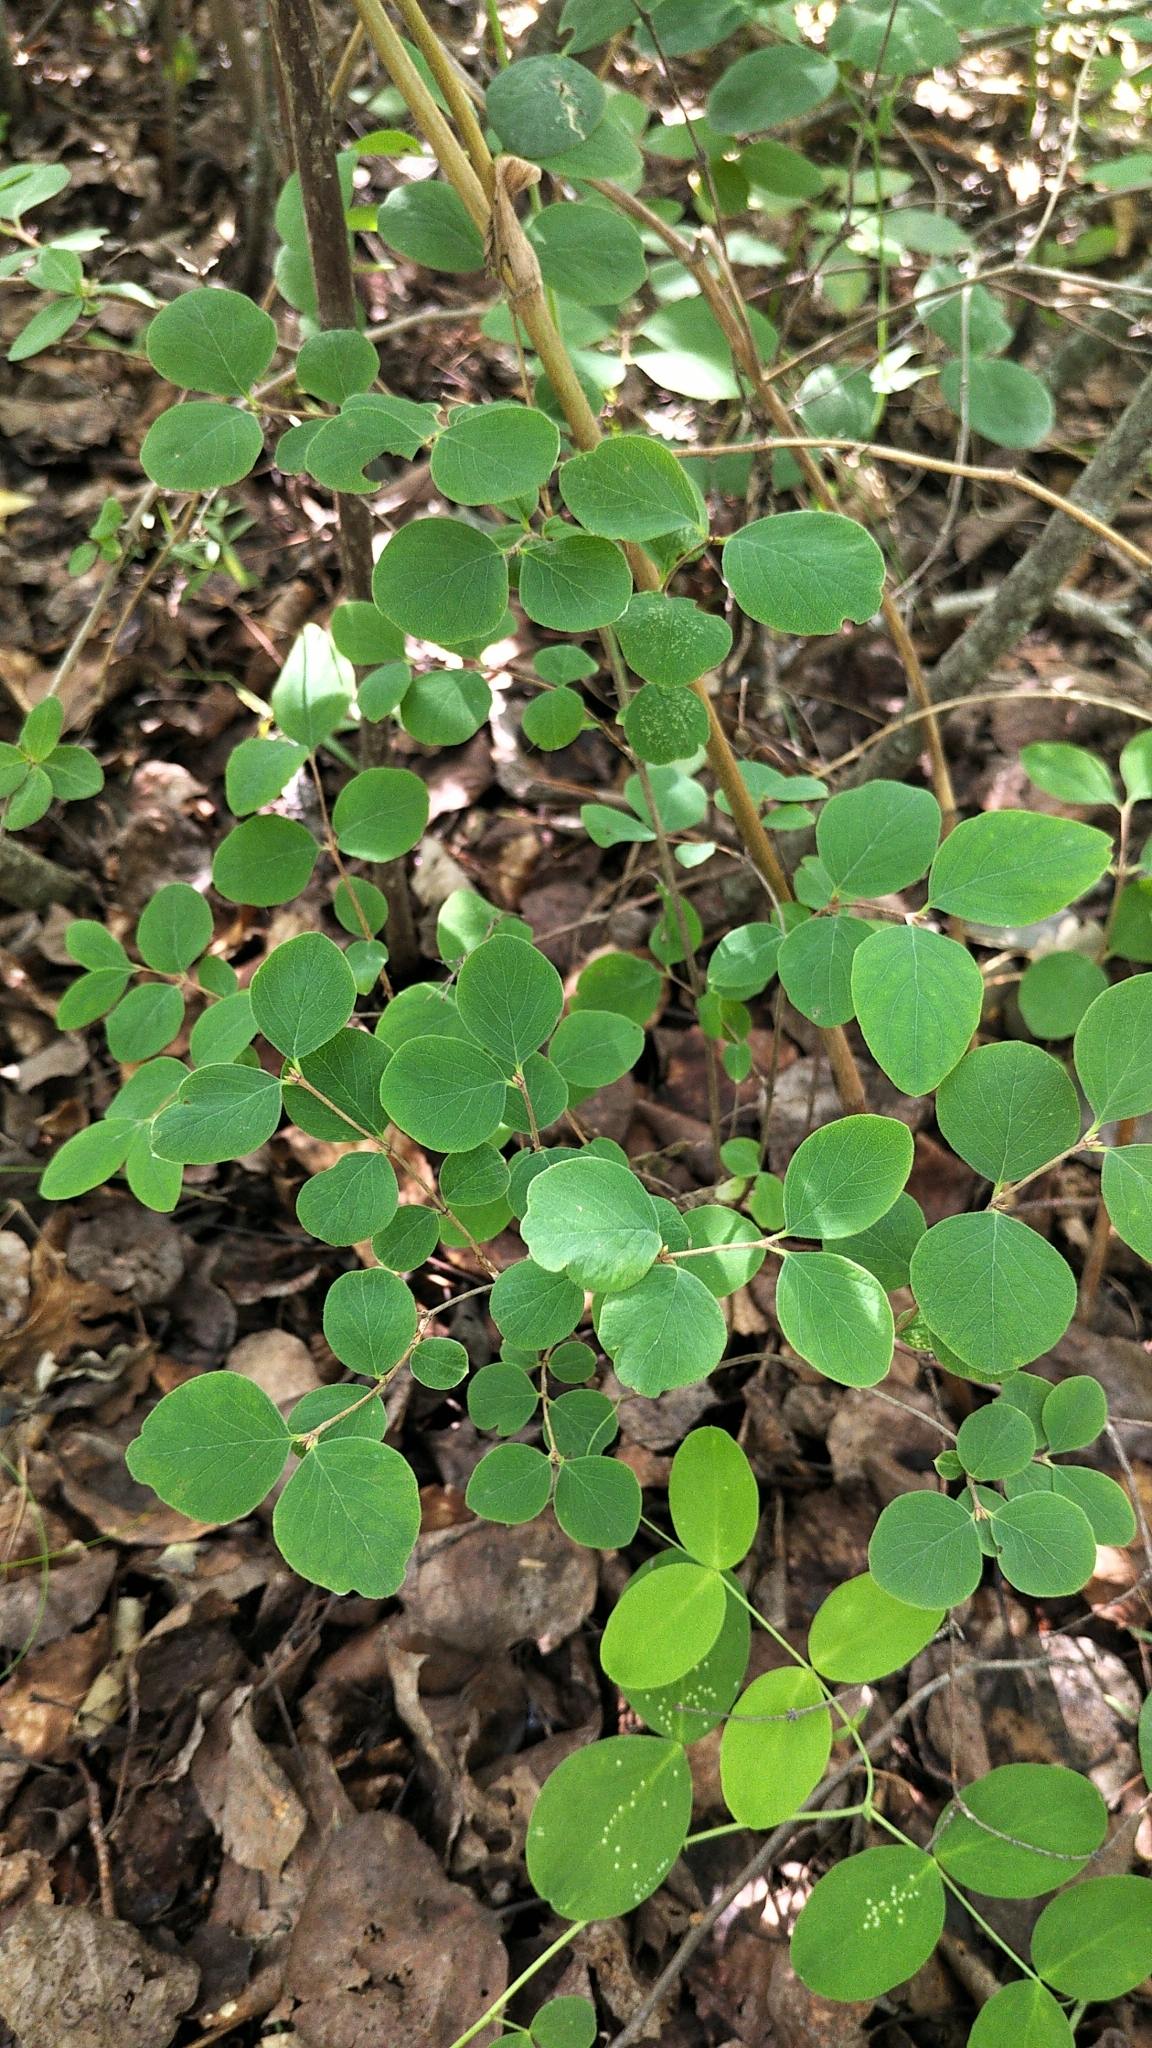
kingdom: Plantae
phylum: Tracheophyta
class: Magnoliopsida
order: Dipsacales
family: Caprifoliaceae
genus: Symphoricarpos
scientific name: Symphoricarpos albus
